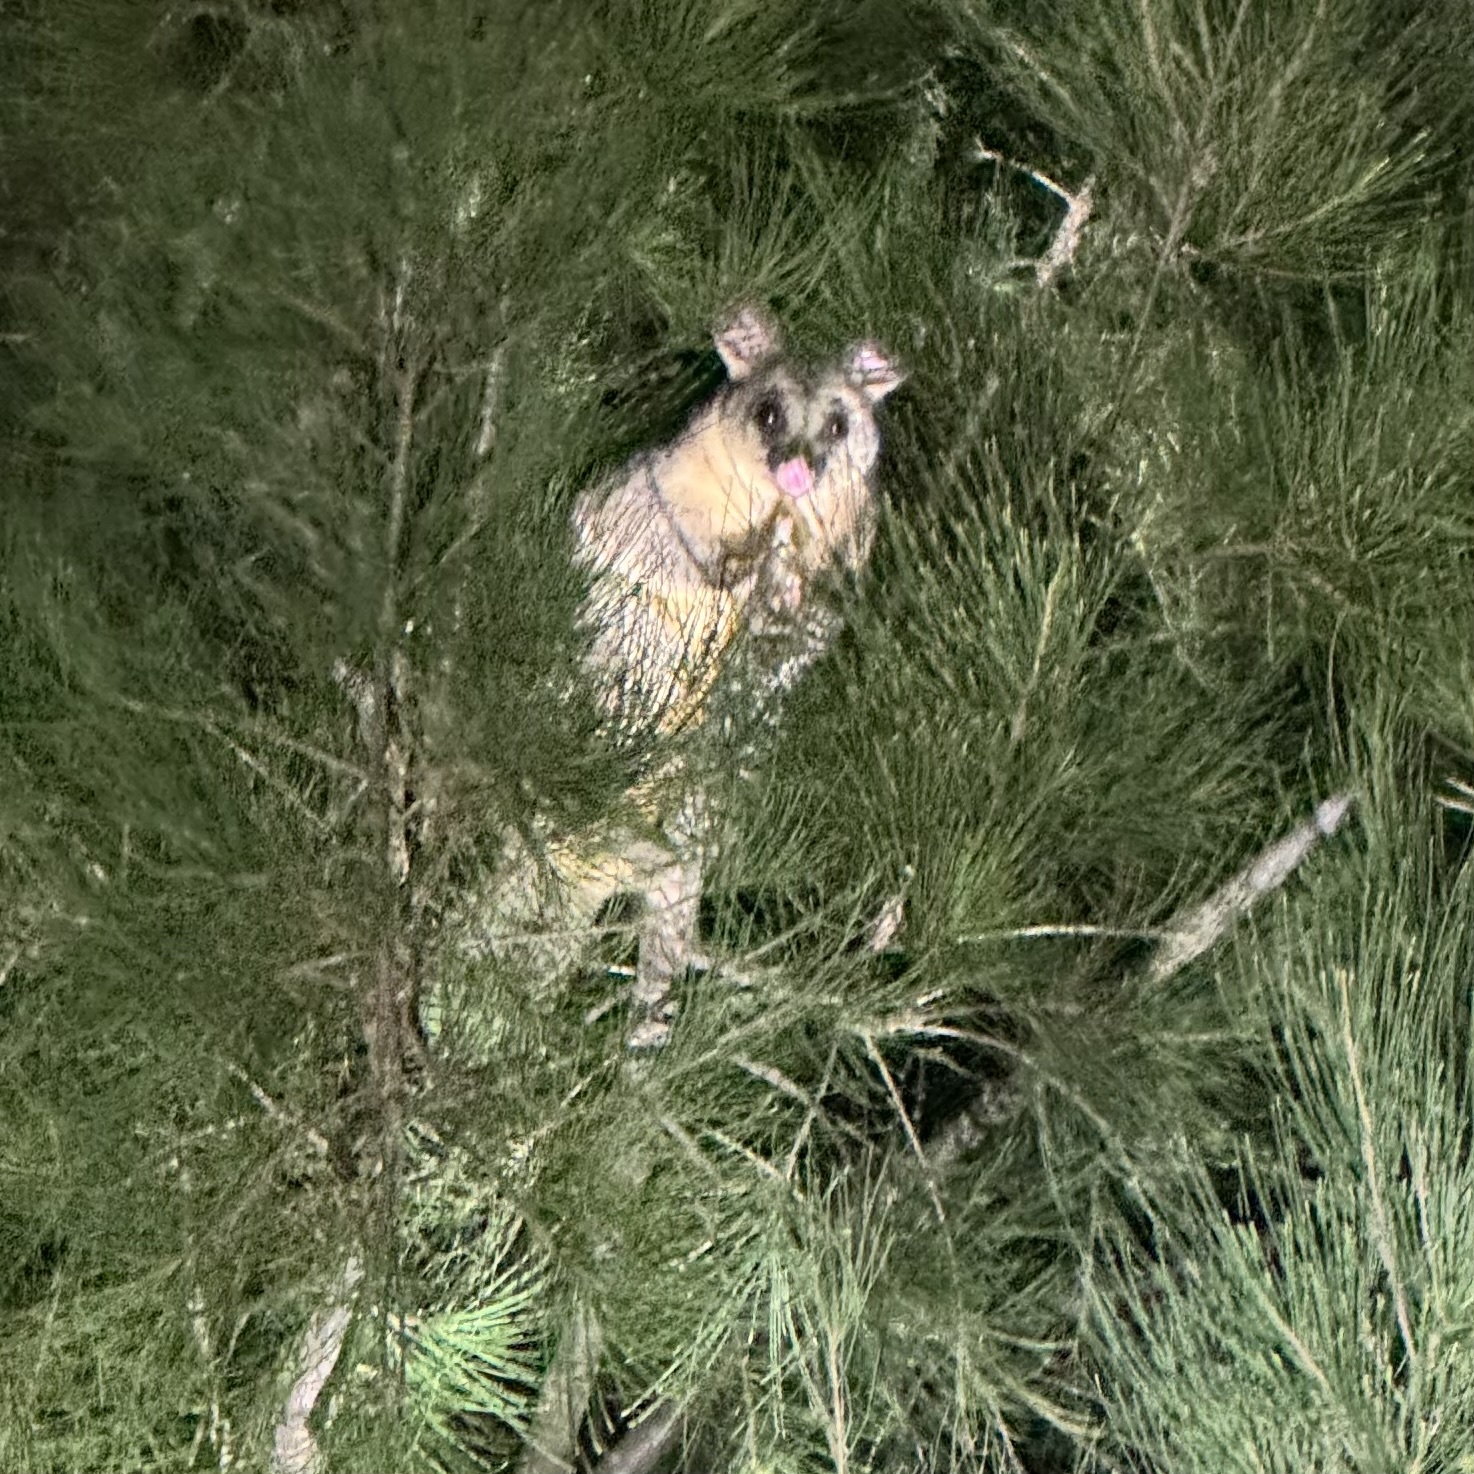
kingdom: Animalia
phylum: Chordata
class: Mammalia
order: Diprotodontia
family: Phalangeridae
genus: Trichosurus
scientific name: Trichosurus vulpecula
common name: Common brushtail
